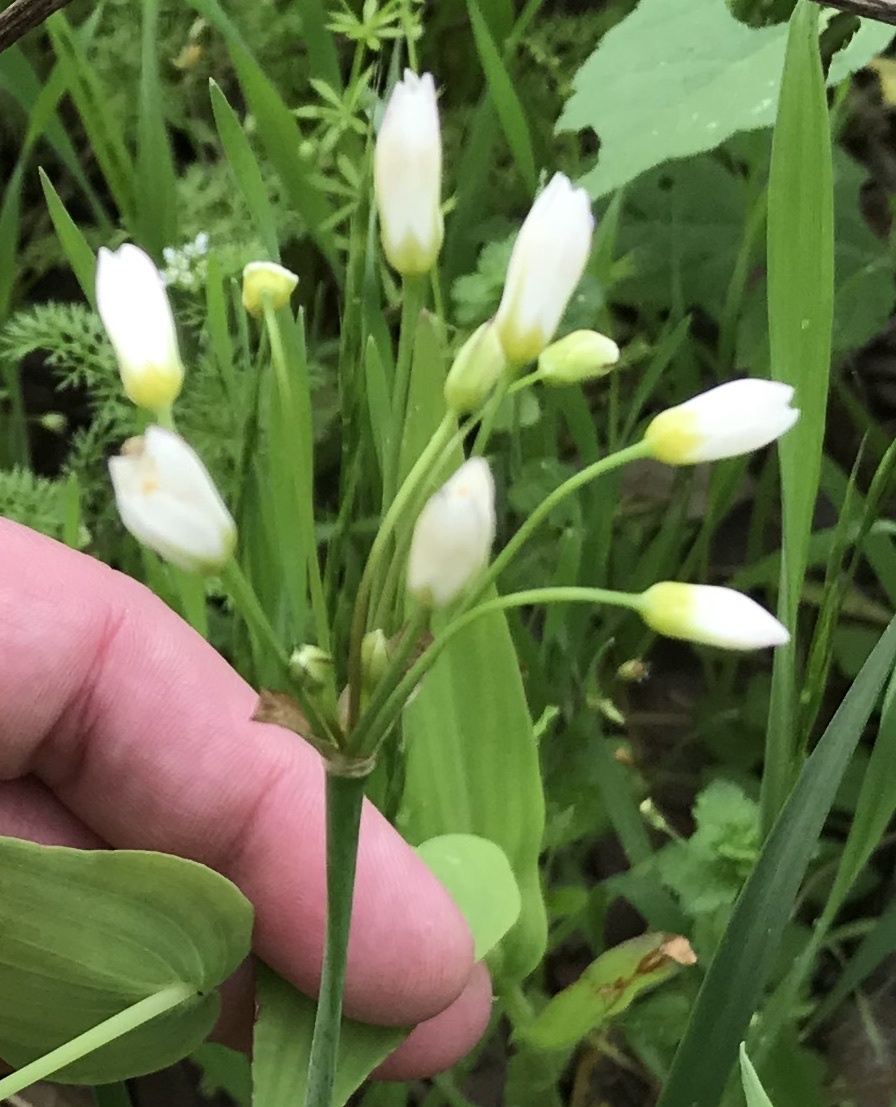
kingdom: Plantae
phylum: Tracheophyta
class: Liliopsida
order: Asparagales
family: Amaryllidaceae
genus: Nothoscordum
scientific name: Nothoscordum bivalve
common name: Crow-poison
